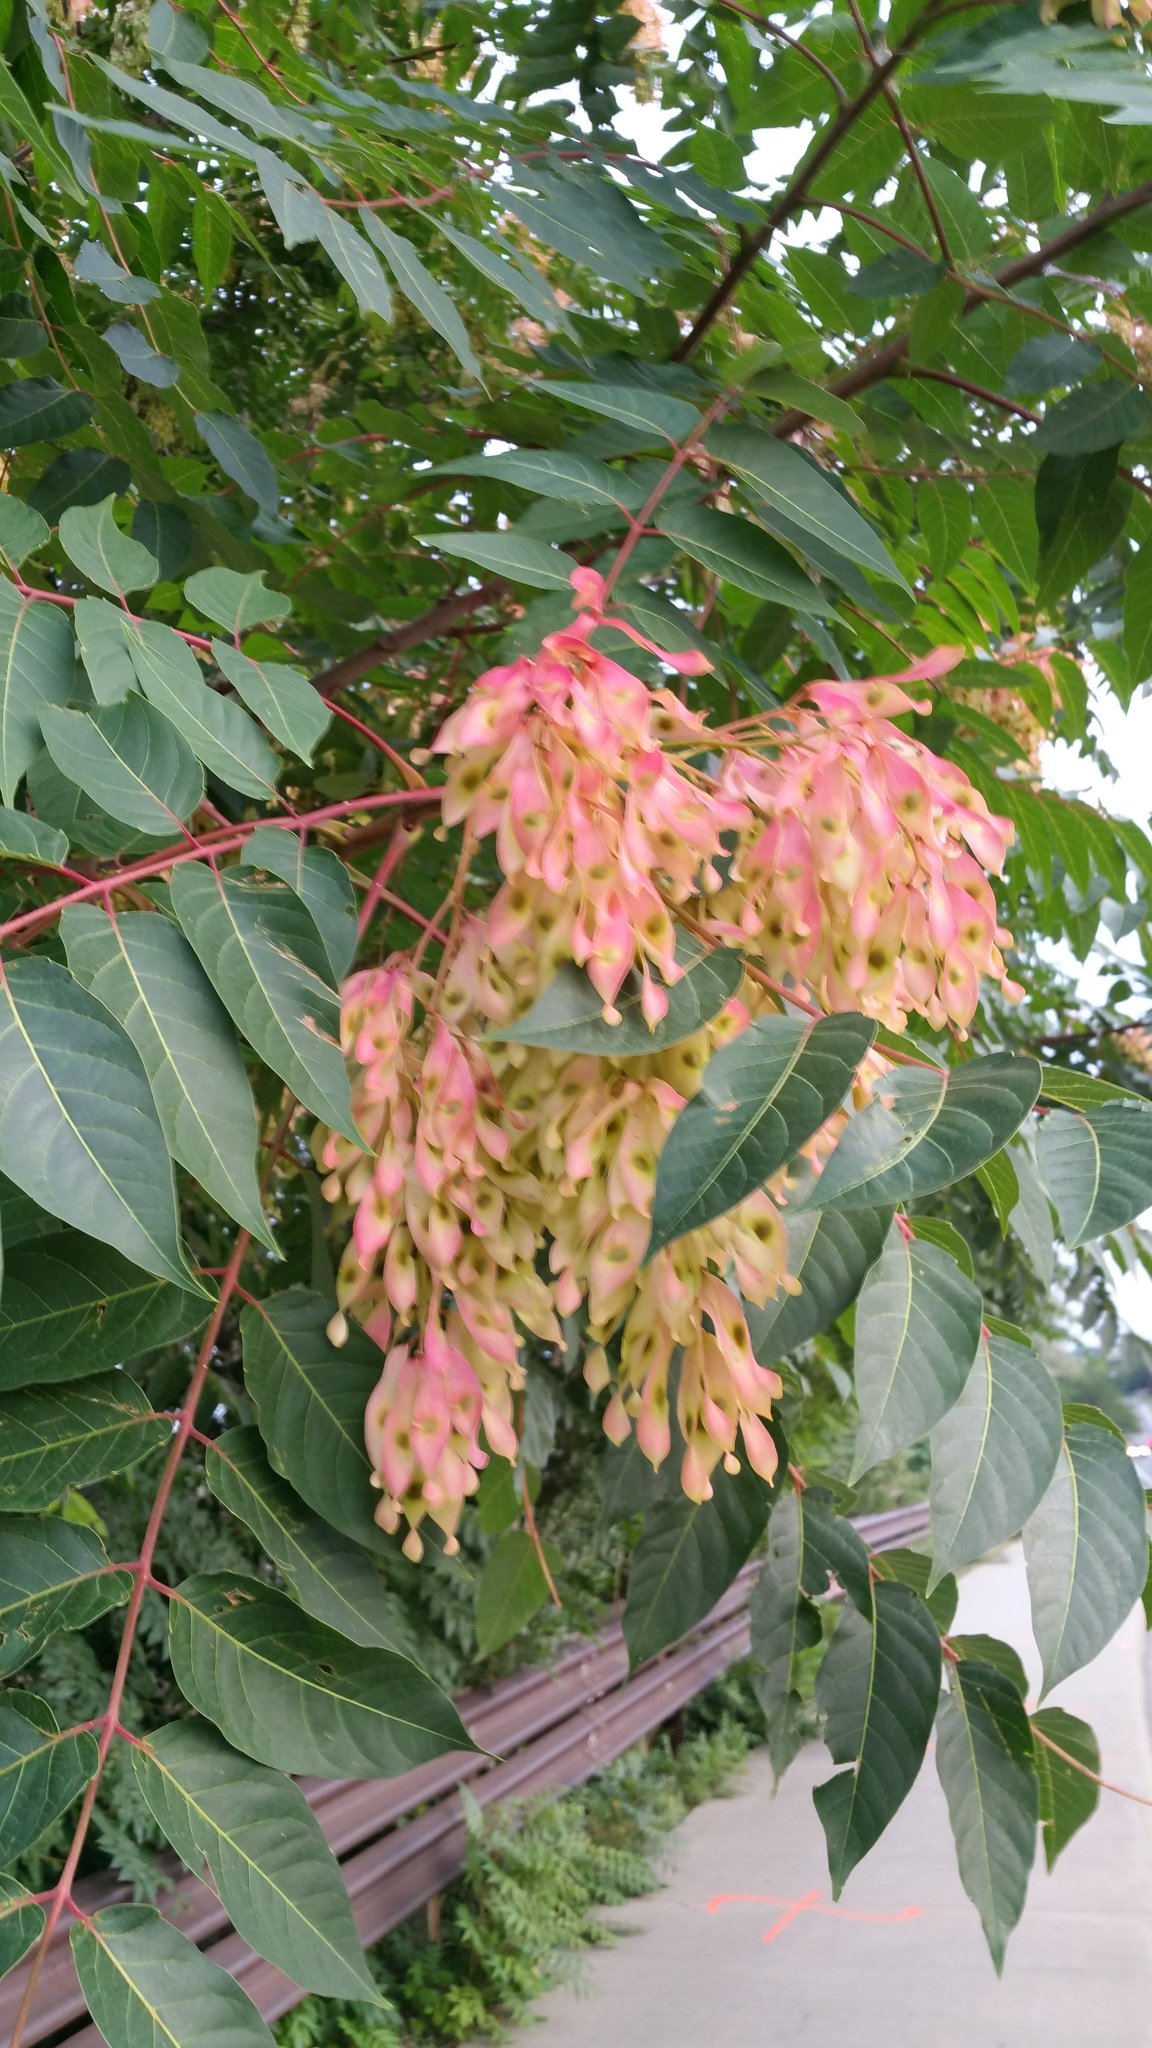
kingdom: Plantae
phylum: Tracheophyta
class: Magnoliopsida
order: Sapindales
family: Simaroubaceae
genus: Ailanthus
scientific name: Ailanthus altissima
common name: Tree-of-heaven
